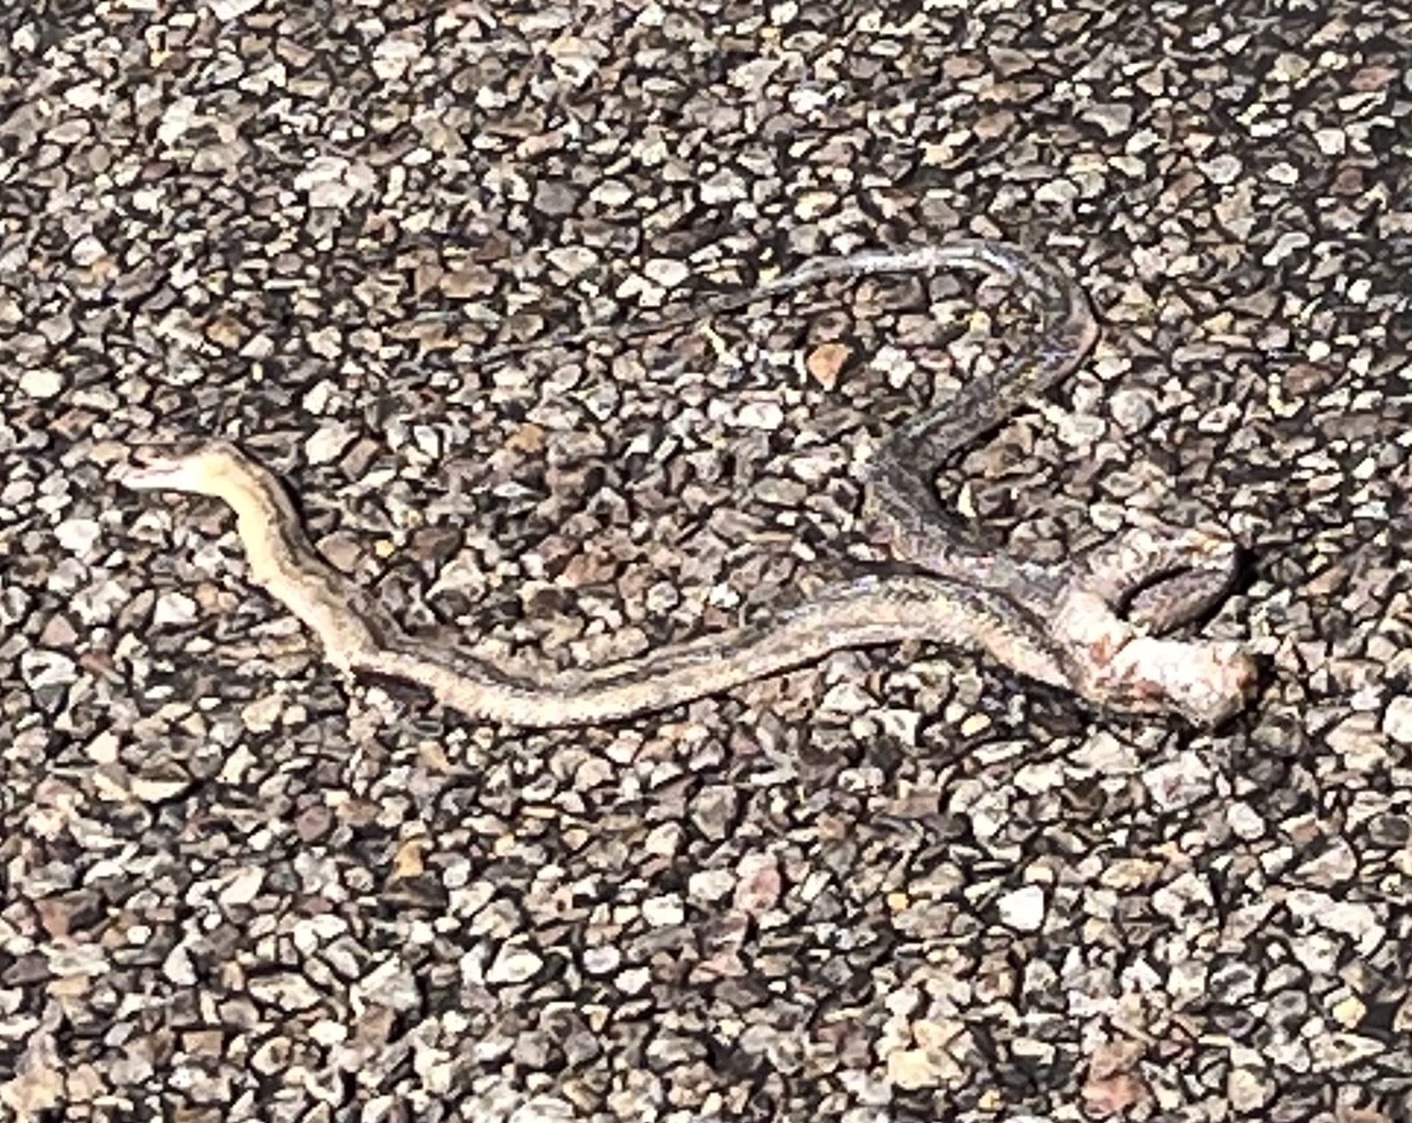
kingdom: Animalia
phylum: Chordata
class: Squamata
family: Colubridae
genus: Pantherophis
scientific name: Pantherophis bairdi
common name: Baird's rat snake
